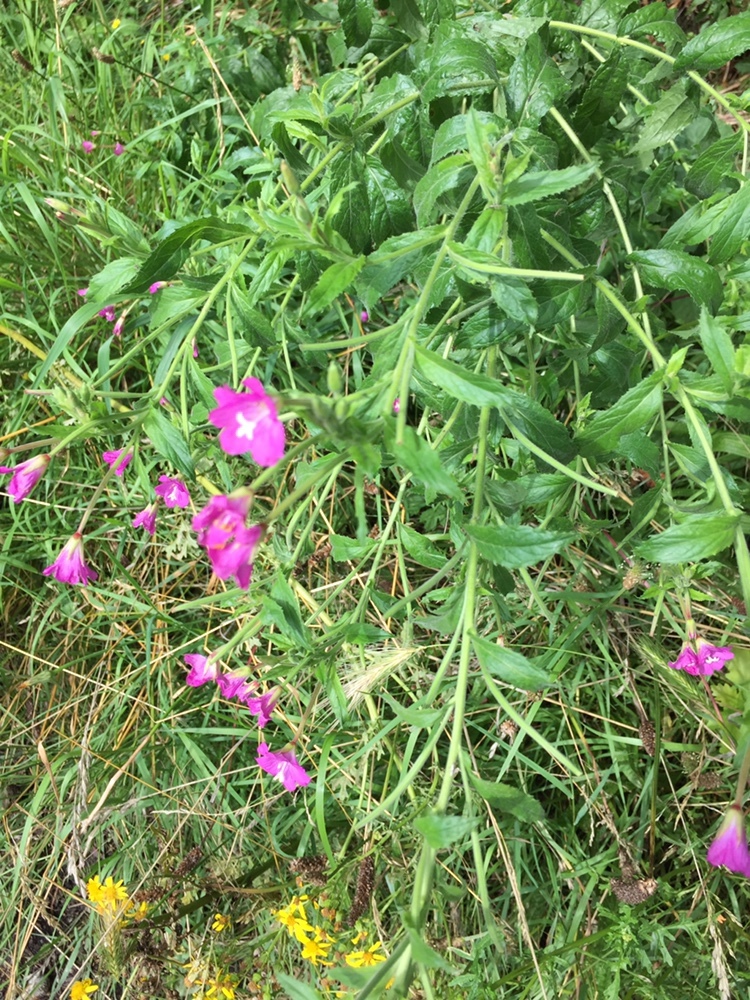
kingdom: Plantae
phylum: Tracheophyta
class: Magnoliopsida
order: Myrtales
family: Onagraceae
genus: Epilobium
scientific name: Epilobium hirsutum
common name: Great willowherb
